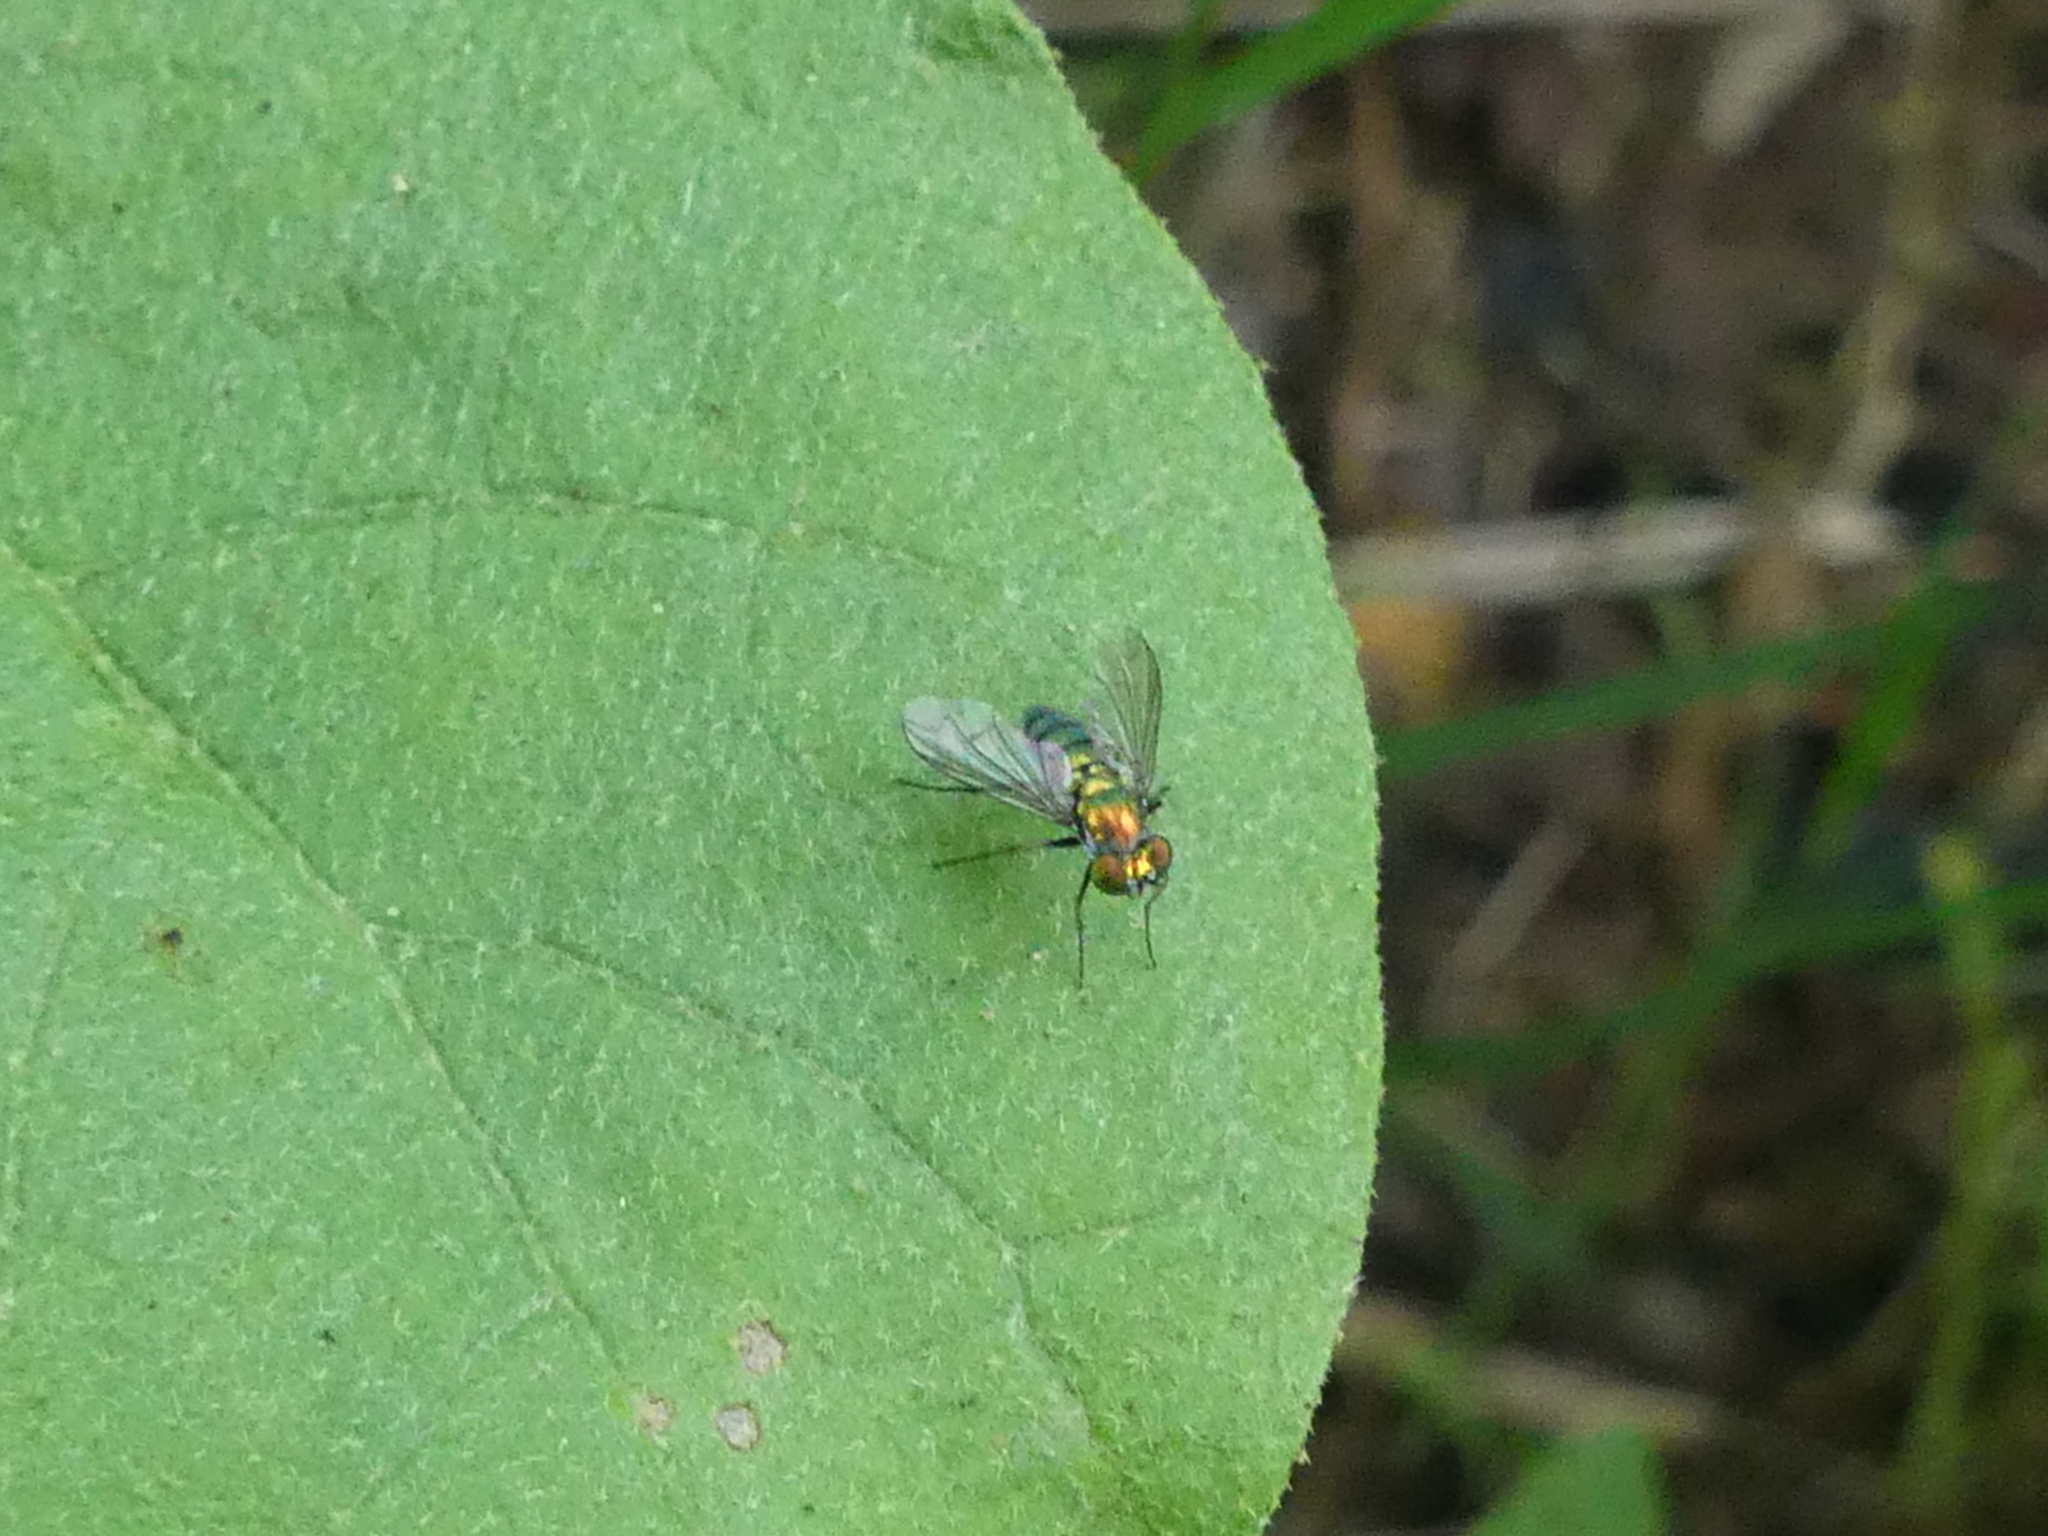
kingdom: Animalia
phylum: Arthropoda
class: Insecta
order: Diptera
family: Dolichopodidae
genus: Condylostylus
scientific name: Condylostylus longicornis
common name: Long-legged fly
